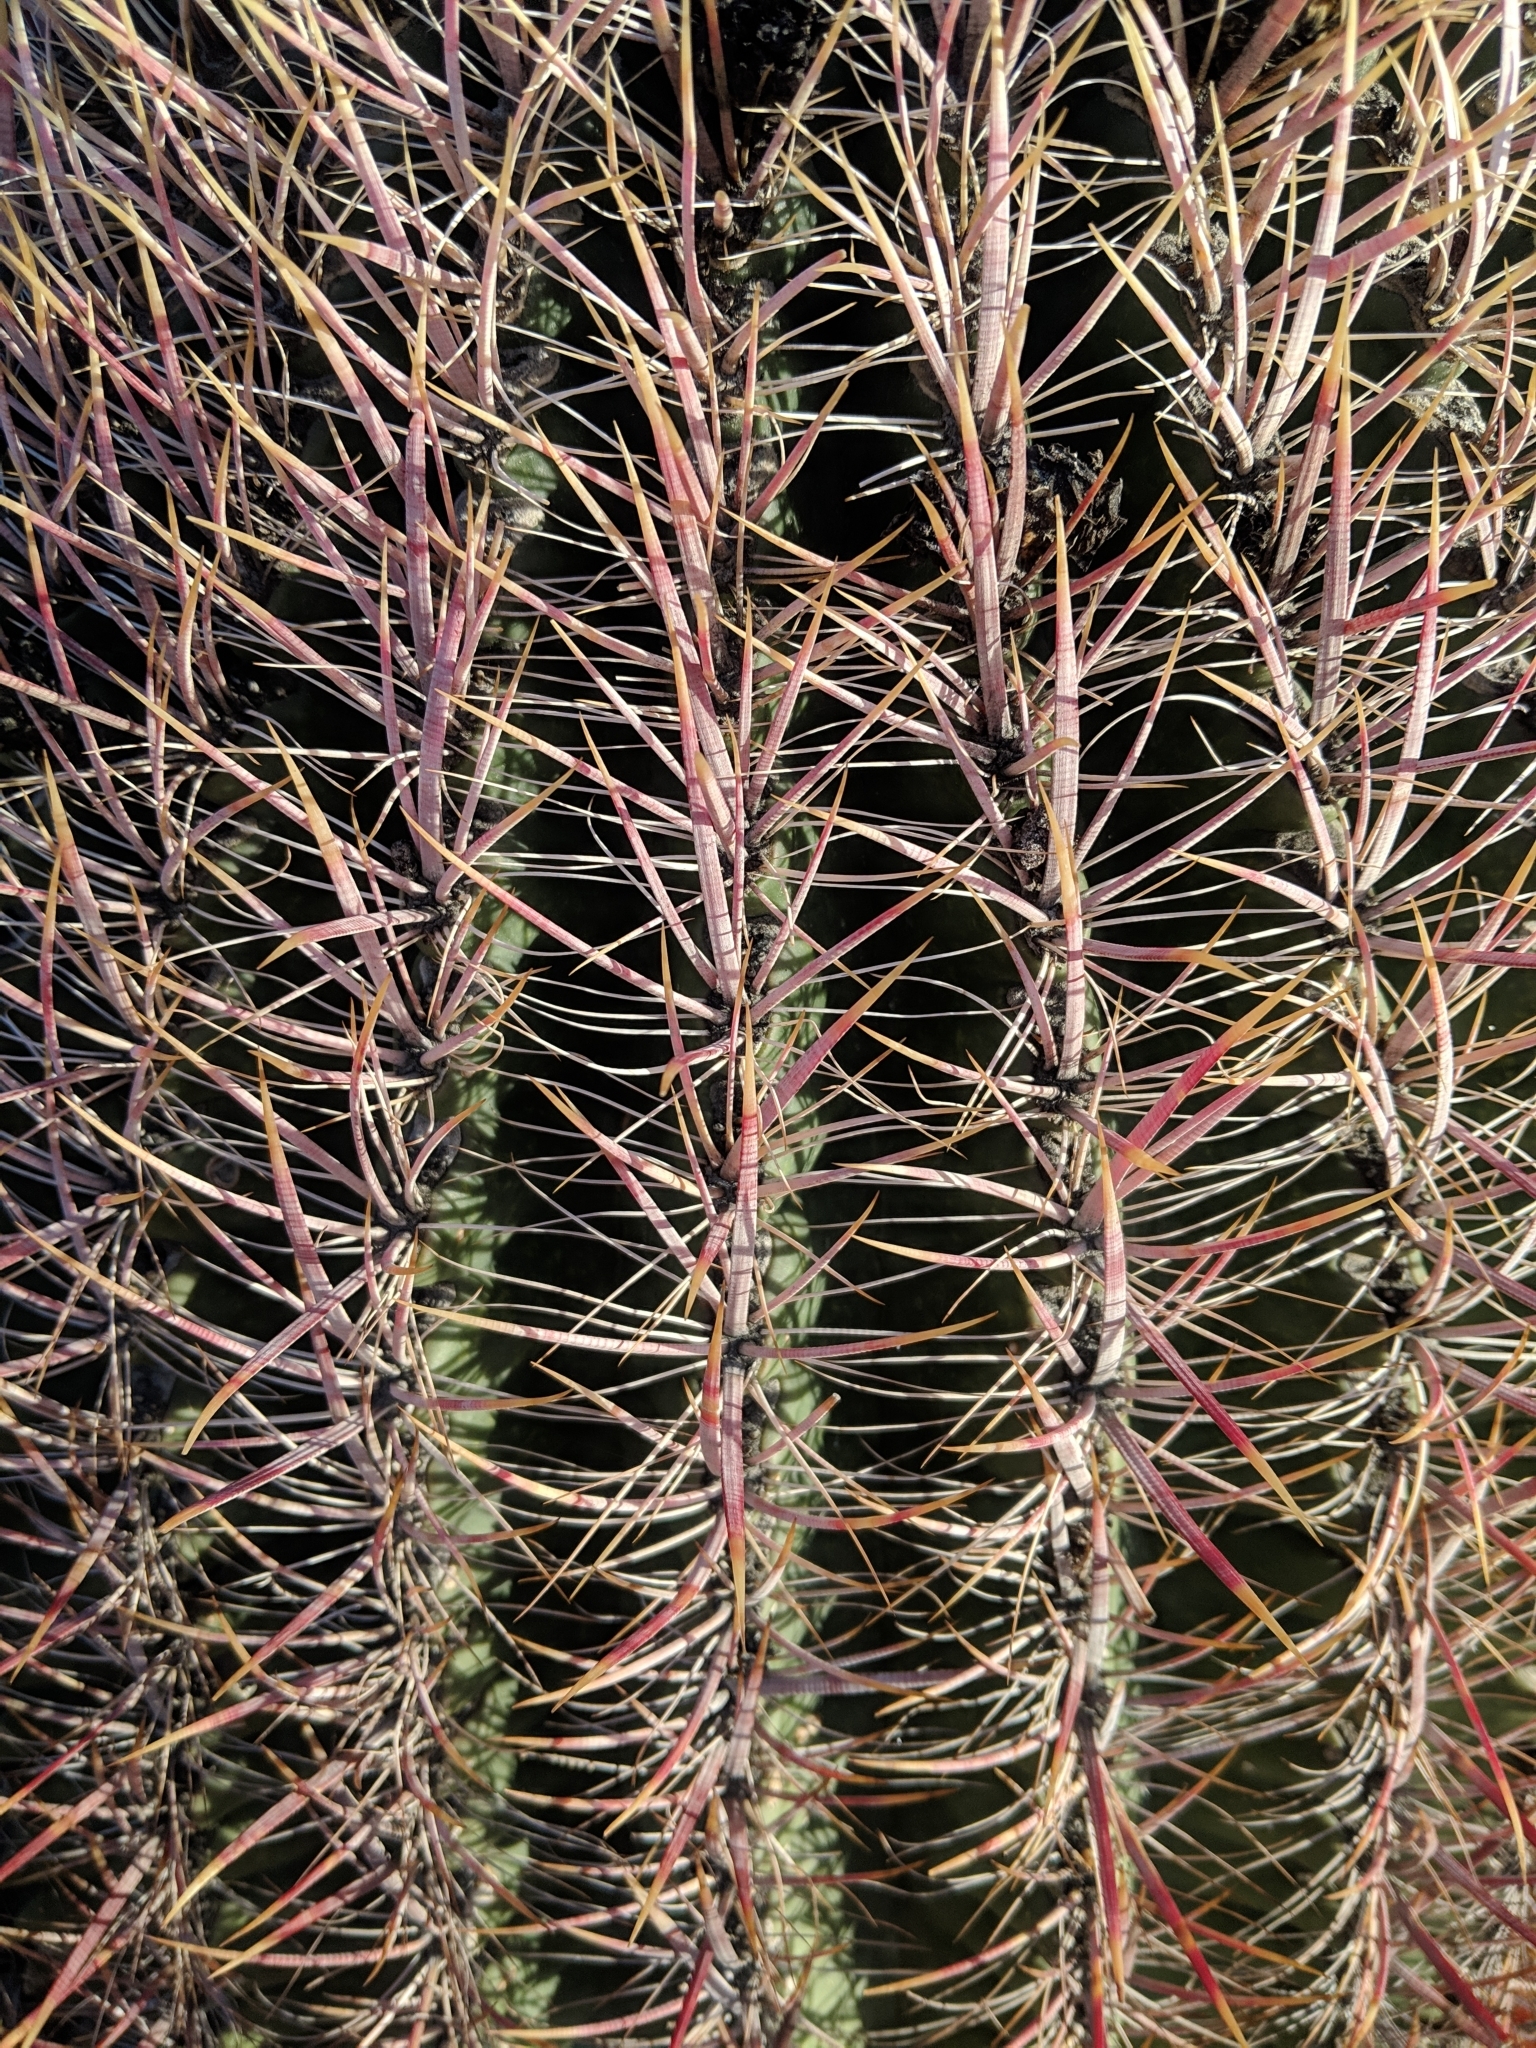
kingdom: Plantae
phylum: Tracheophyta
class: Magnoliopsida
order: Caryophyllales
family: Cactaceae
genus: Ferocactus
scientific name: Ferocactus cylindraceus
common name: California barrel cactus
